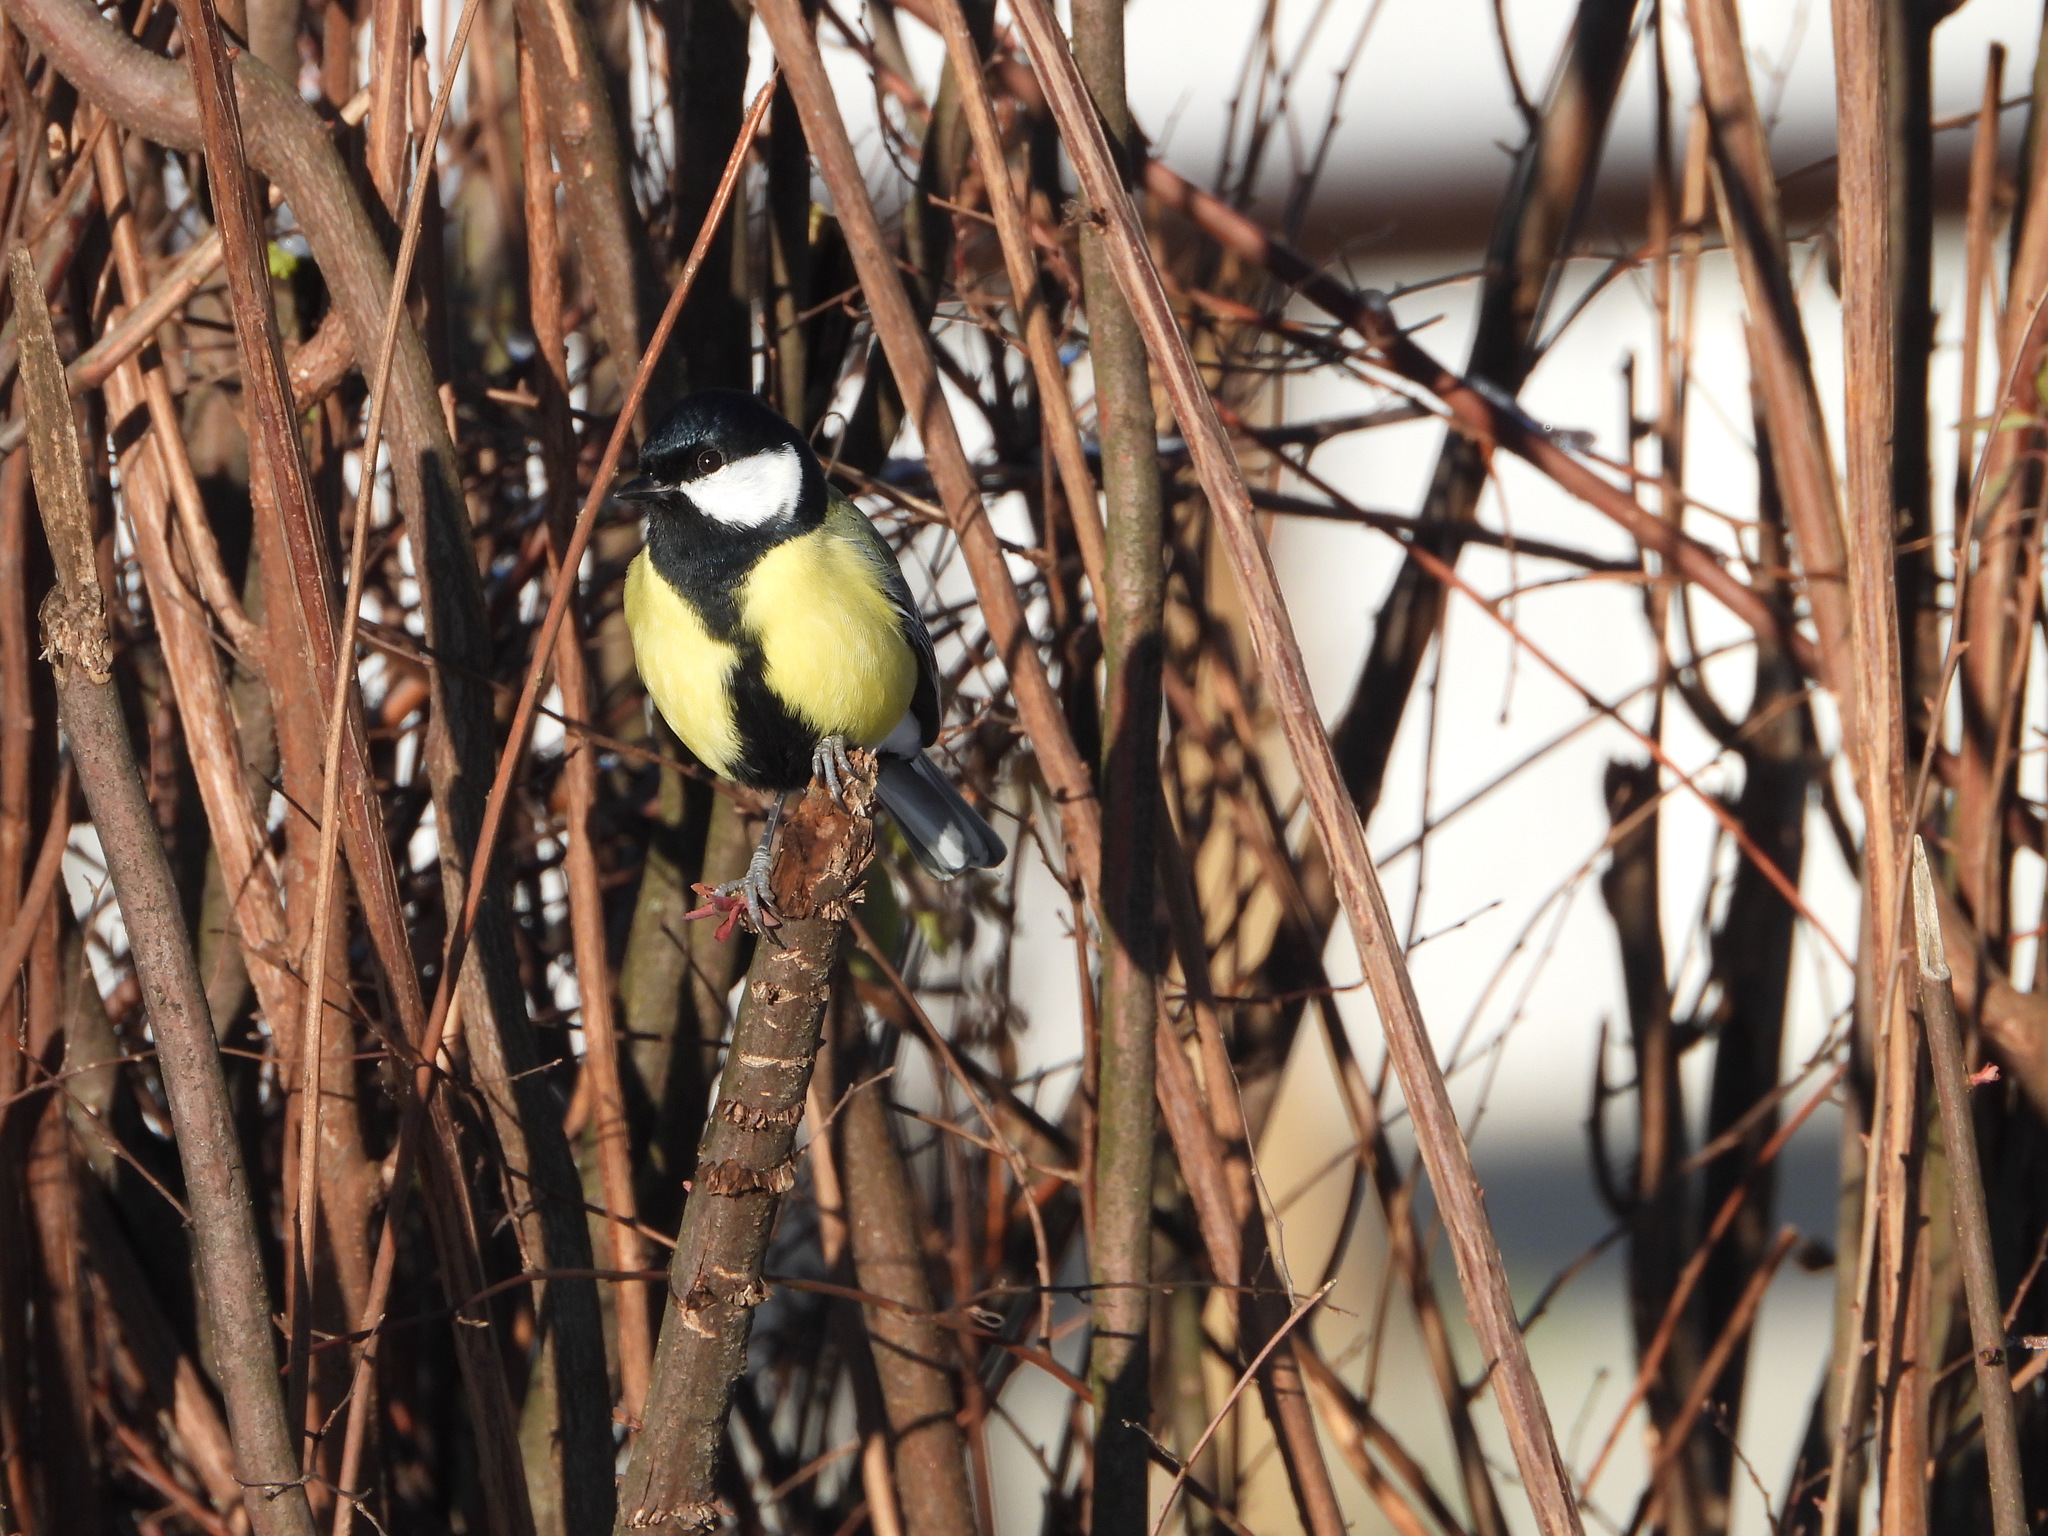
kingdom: Animalia
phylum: Chordata
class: Aves
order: Passeriformes
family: Paridae
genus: Parus
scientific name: Parus major
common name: Great tit
